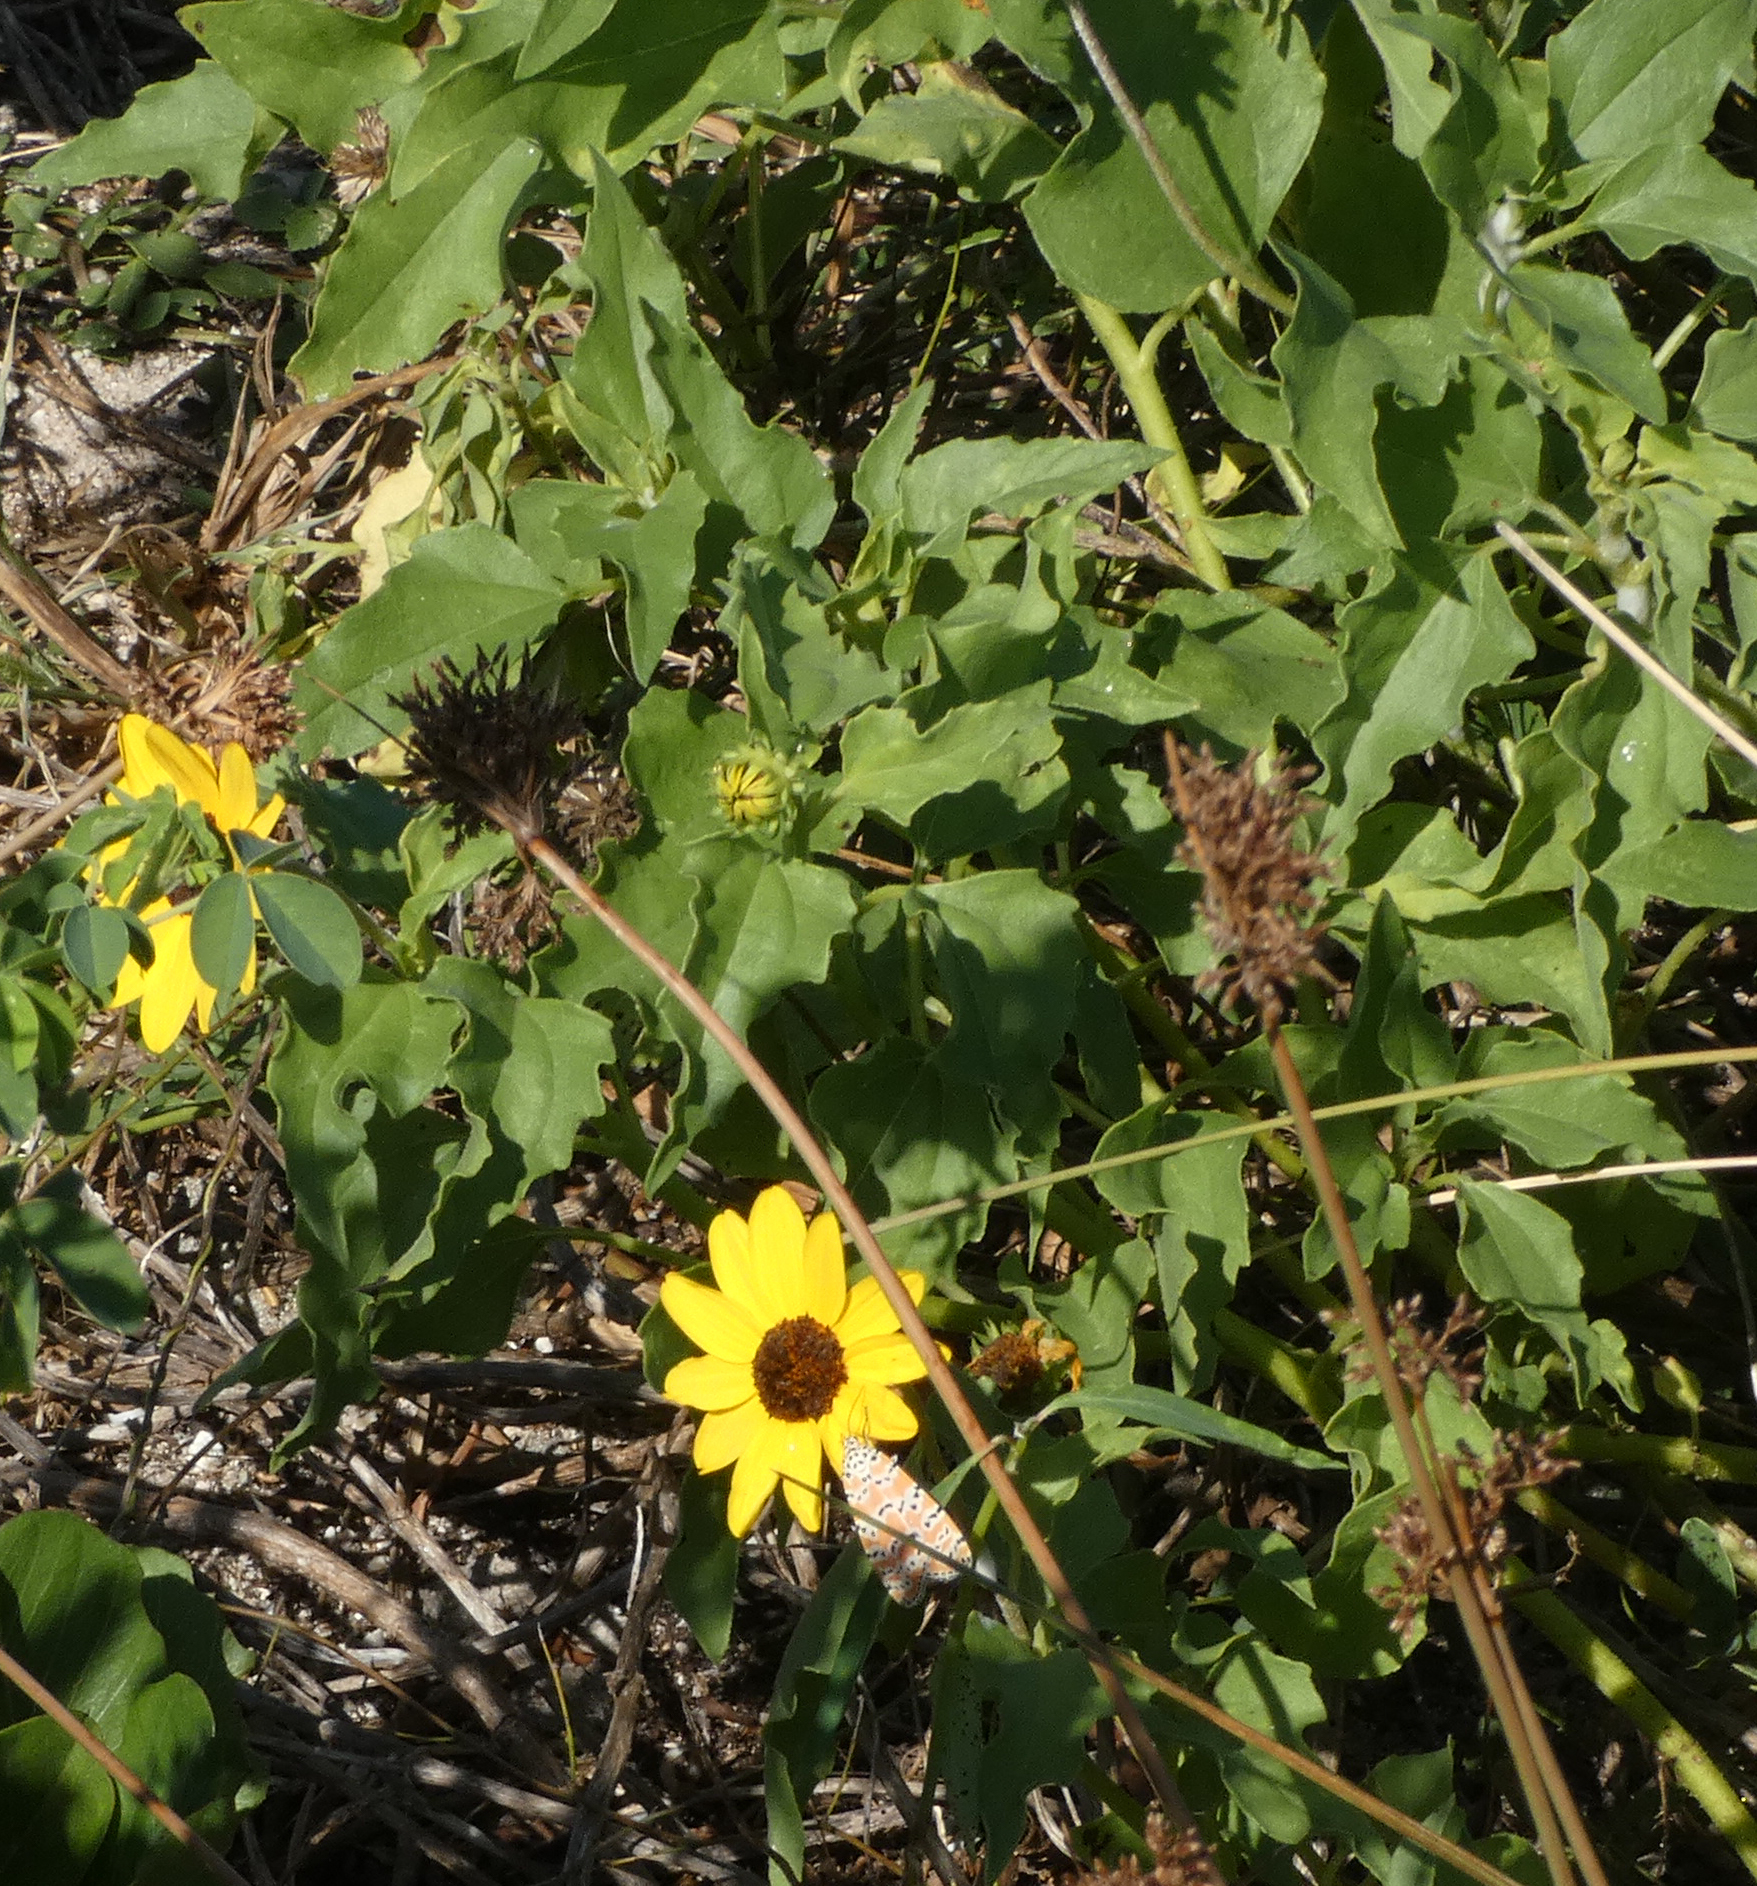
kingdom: Plantae
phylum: Tracheophyta
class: Magnoliopsida
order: Asterales
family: Asteraceae
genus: Helianthus
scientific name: Helianthus debilis
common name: Weak sunflower
